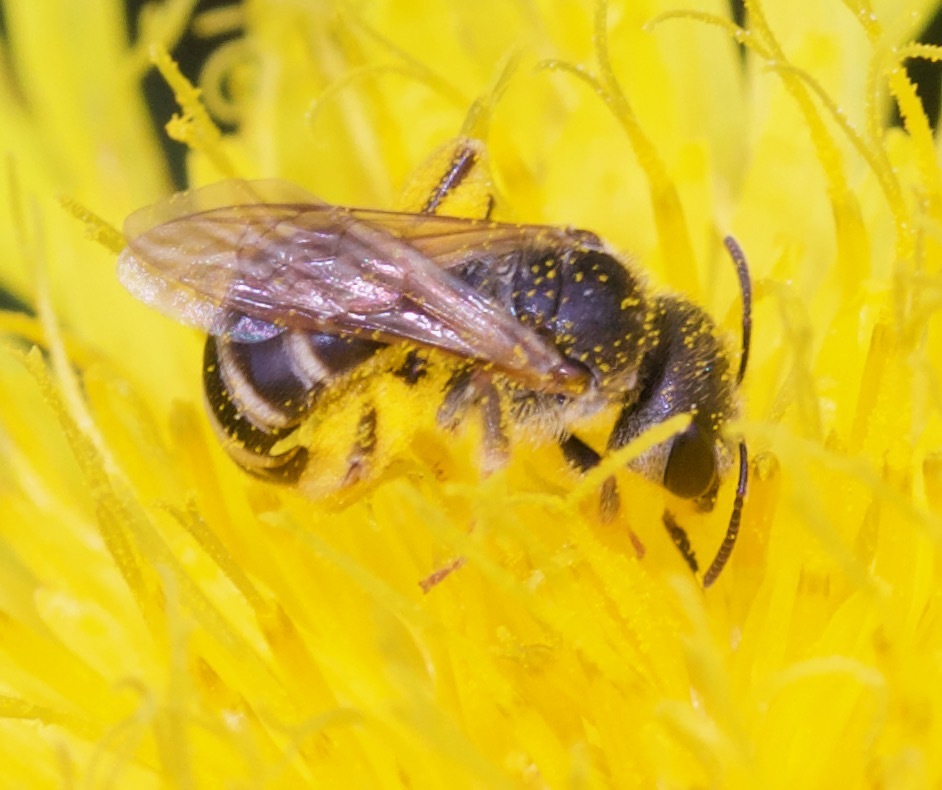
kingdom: Animalia
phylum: Arthropoda
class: Insecta
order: Hymenoptera
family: Halictidae
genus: Halictus
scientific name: Halictus ligatus
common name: Ligated furrow bee
